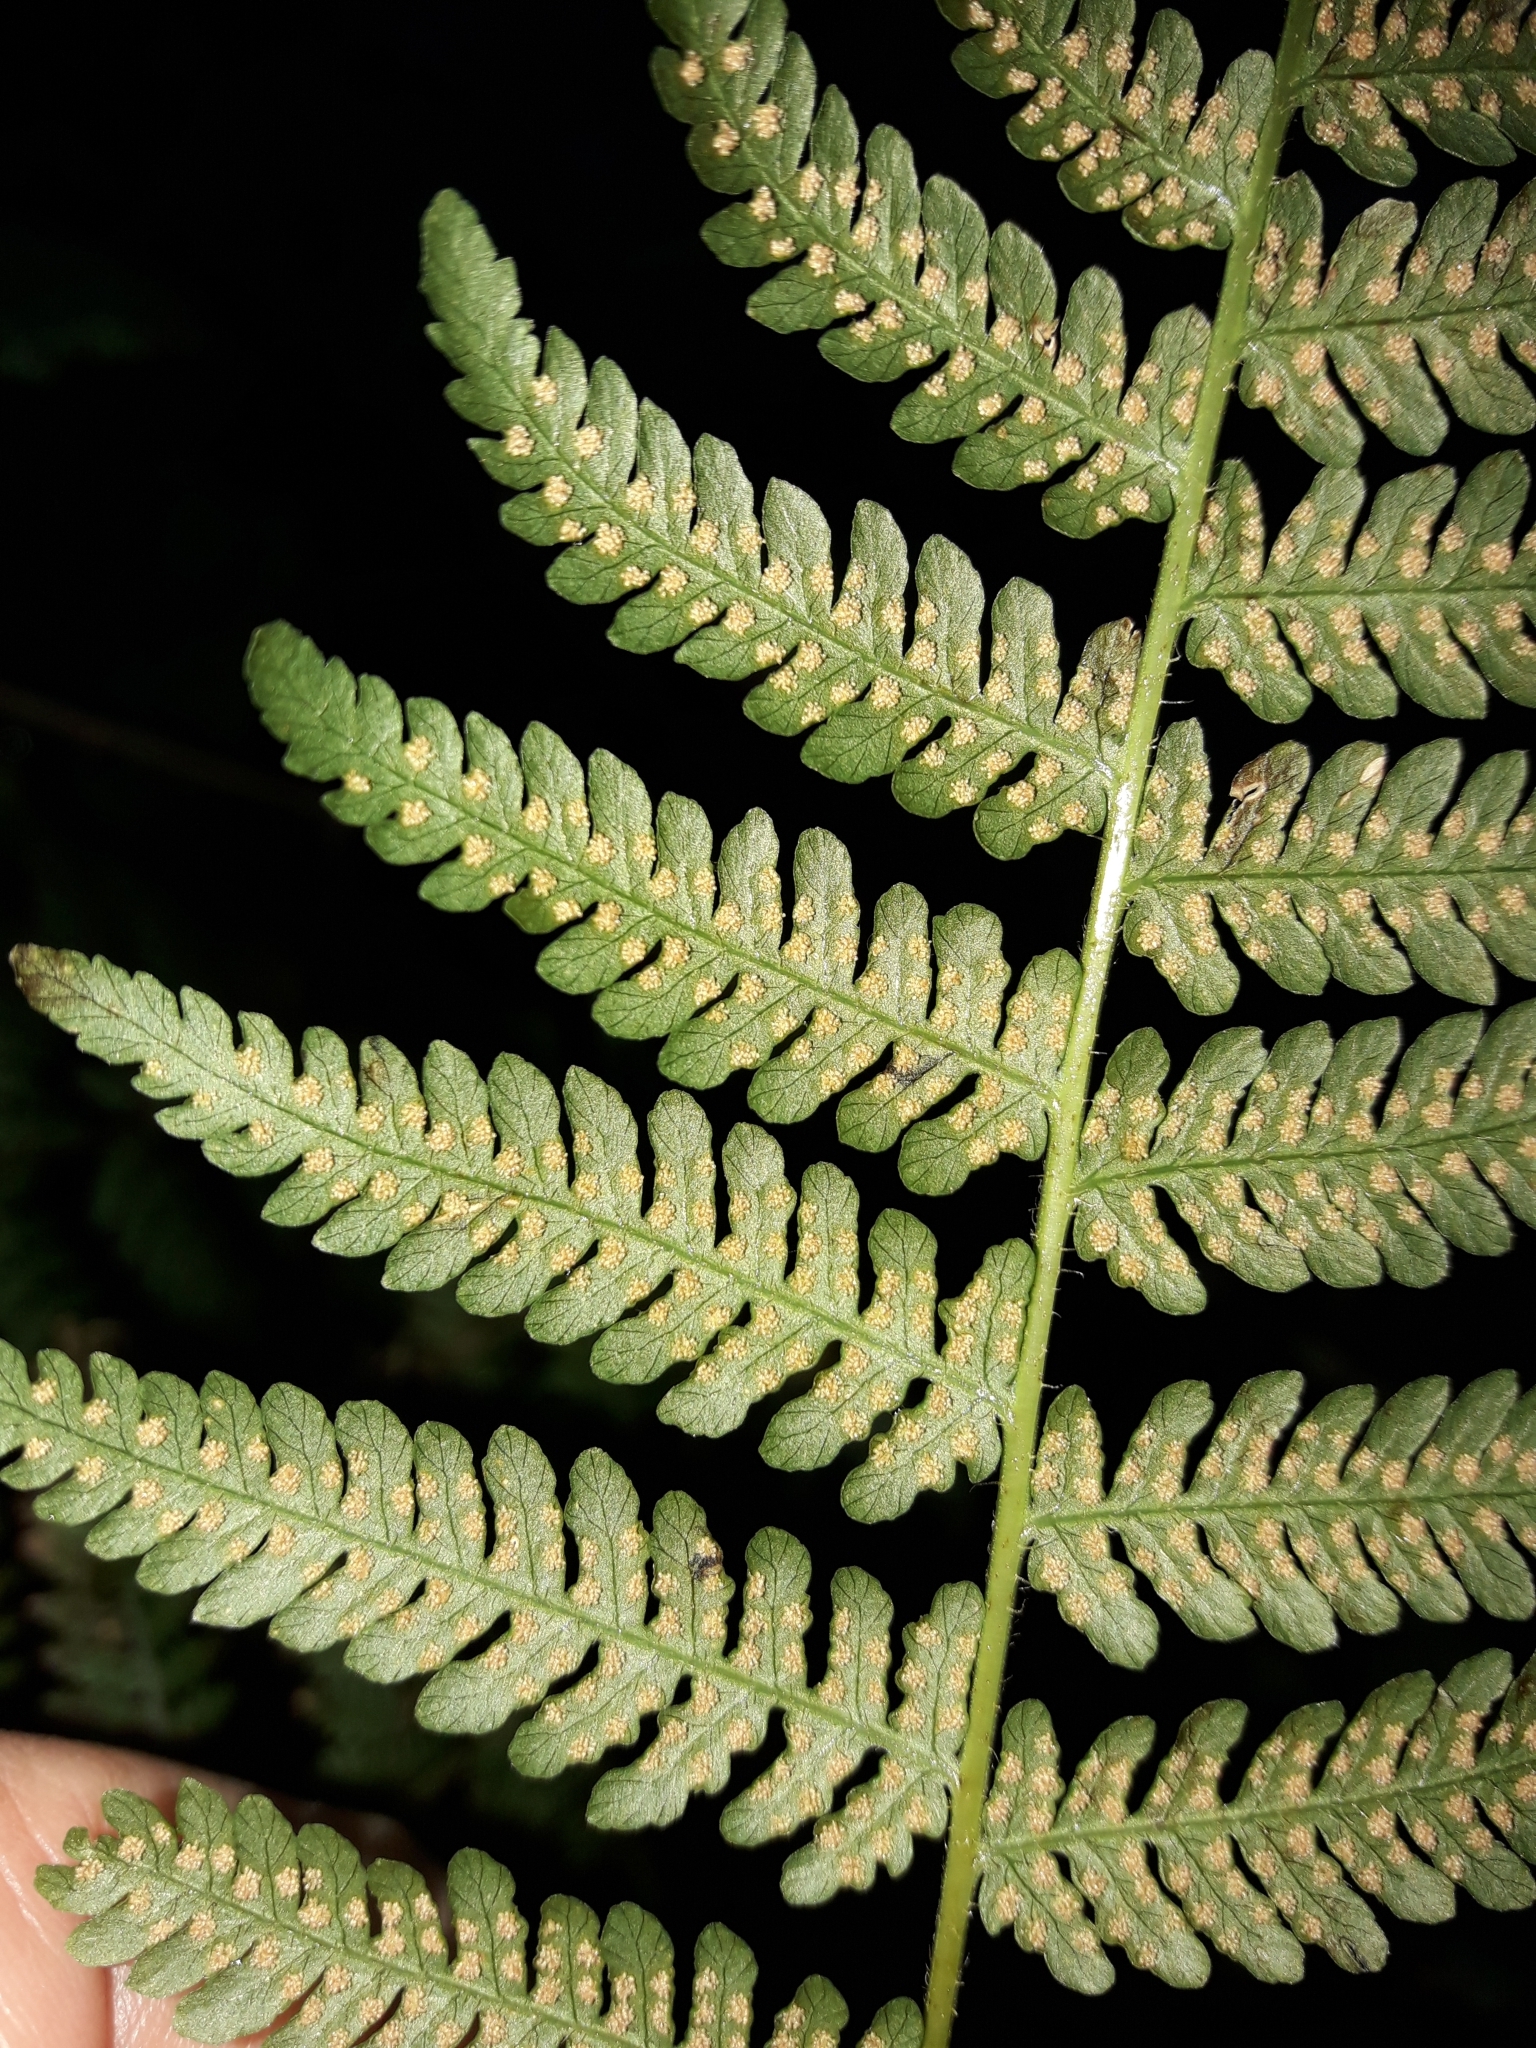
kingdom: Plantae
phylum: Tracheophyta
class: Polypodiopsida
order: Polypodiales
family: Dennstaedtiaceae
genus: Hypolepis
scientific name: Hypolepis ambigua
